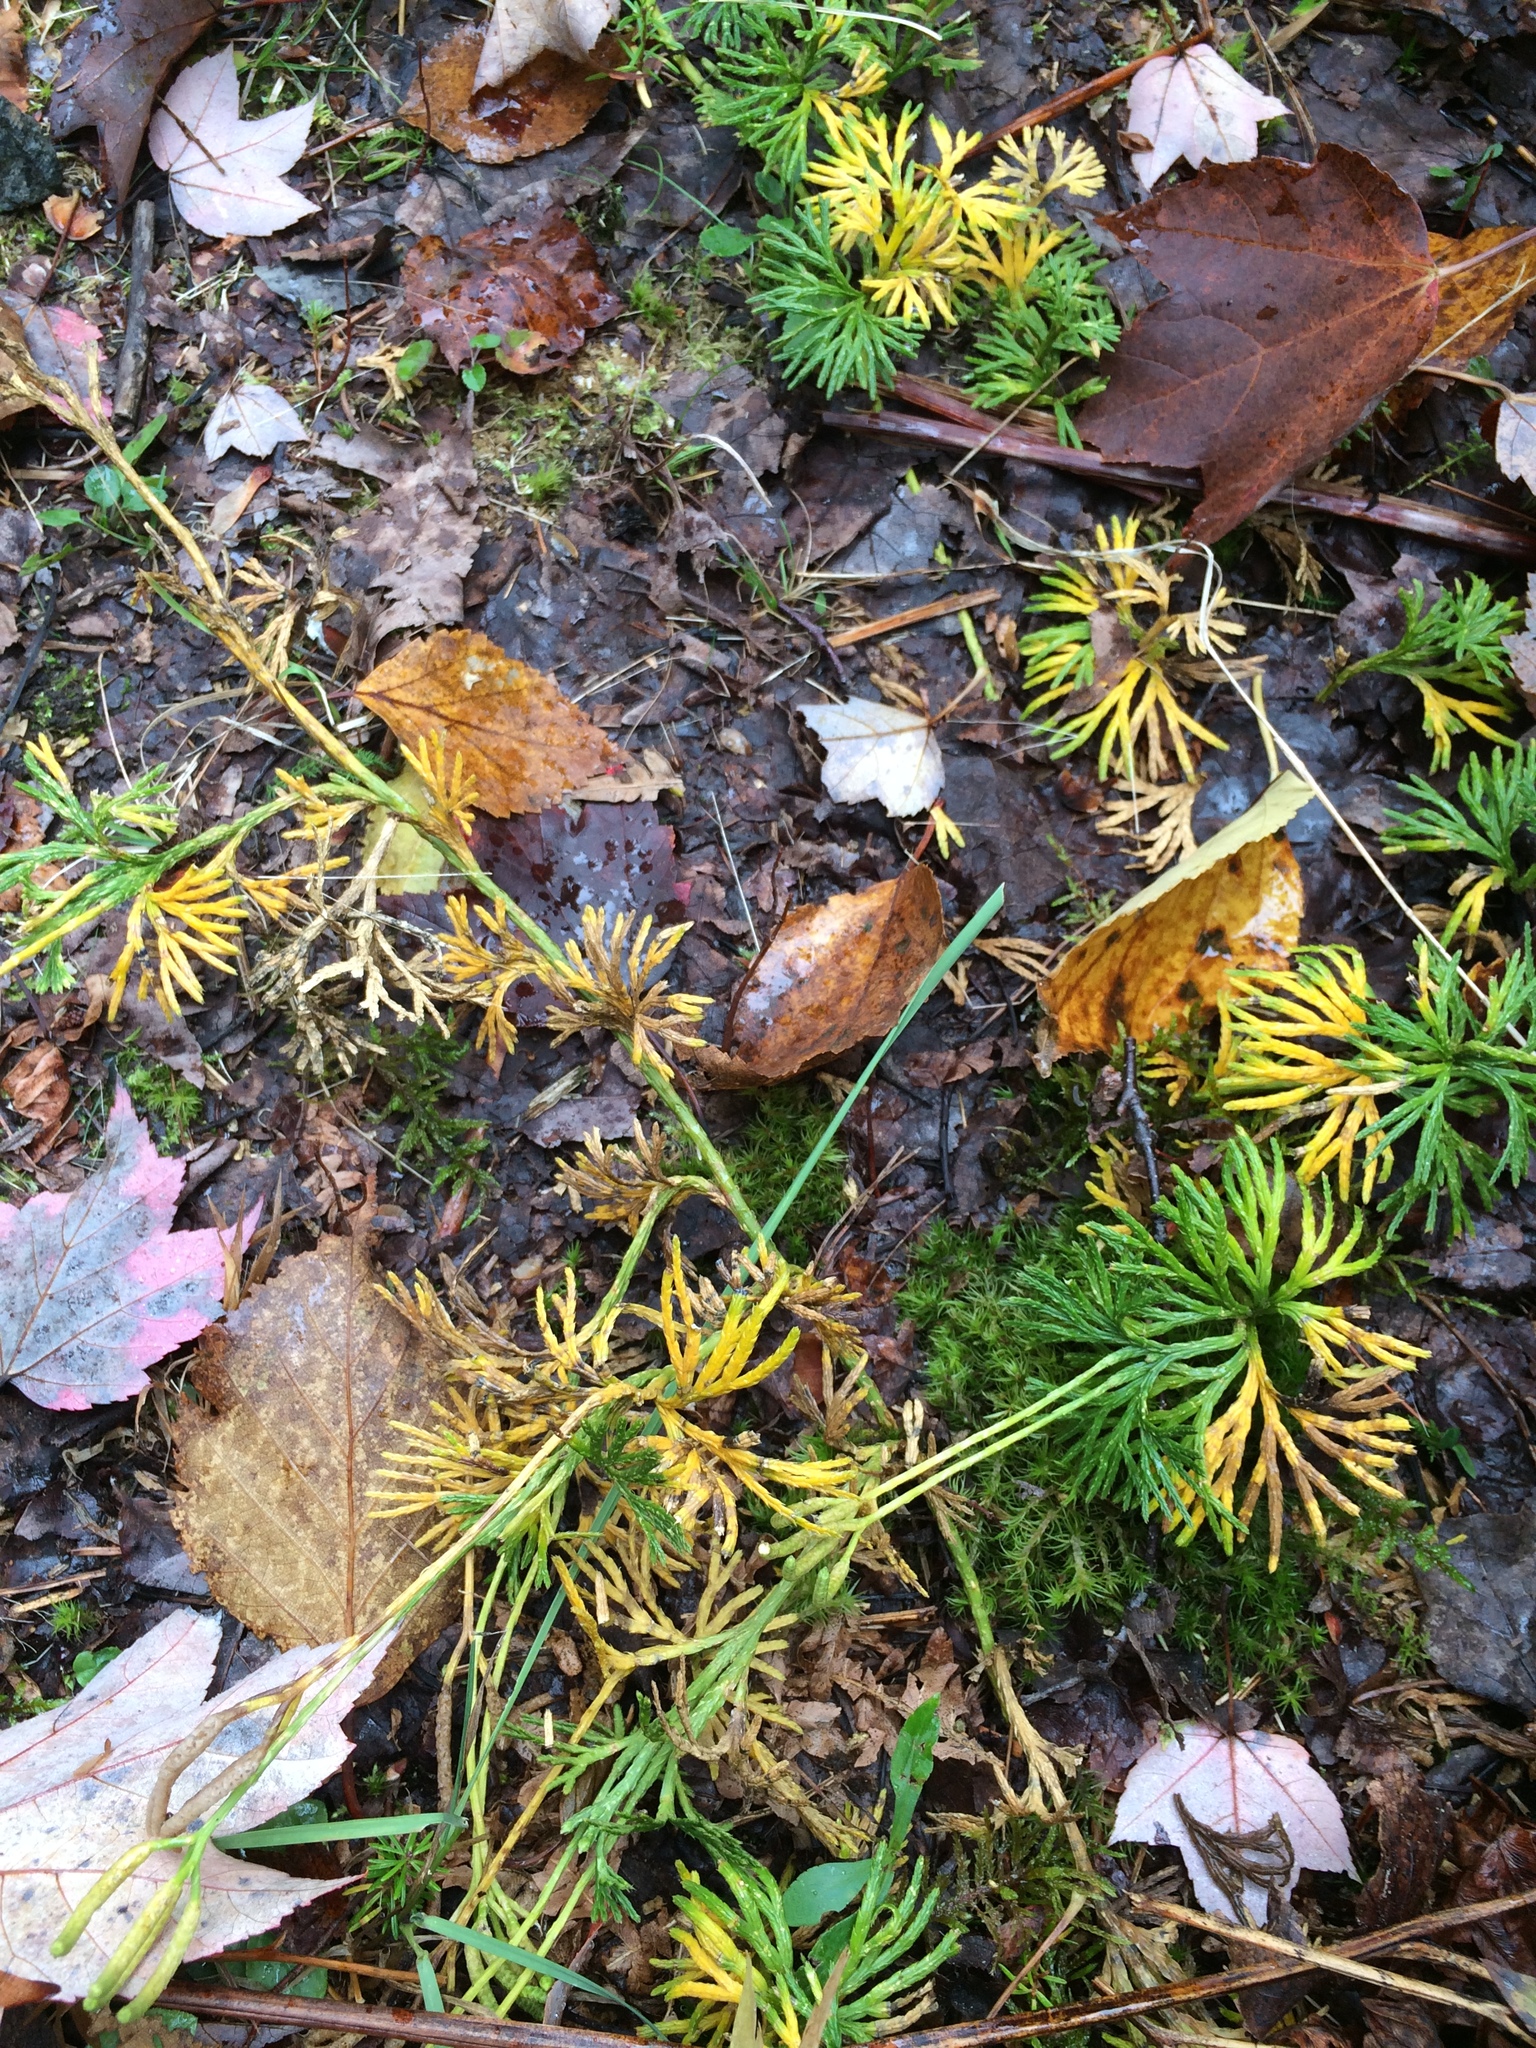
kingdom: Plantae
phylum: Tracheophyta
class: Lycopodiopsida
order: Lycopodiales
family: Lycopodiaceae
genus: Diphasiastrum
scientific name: Diphasiastrum digitatum
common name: Southern running-pine
